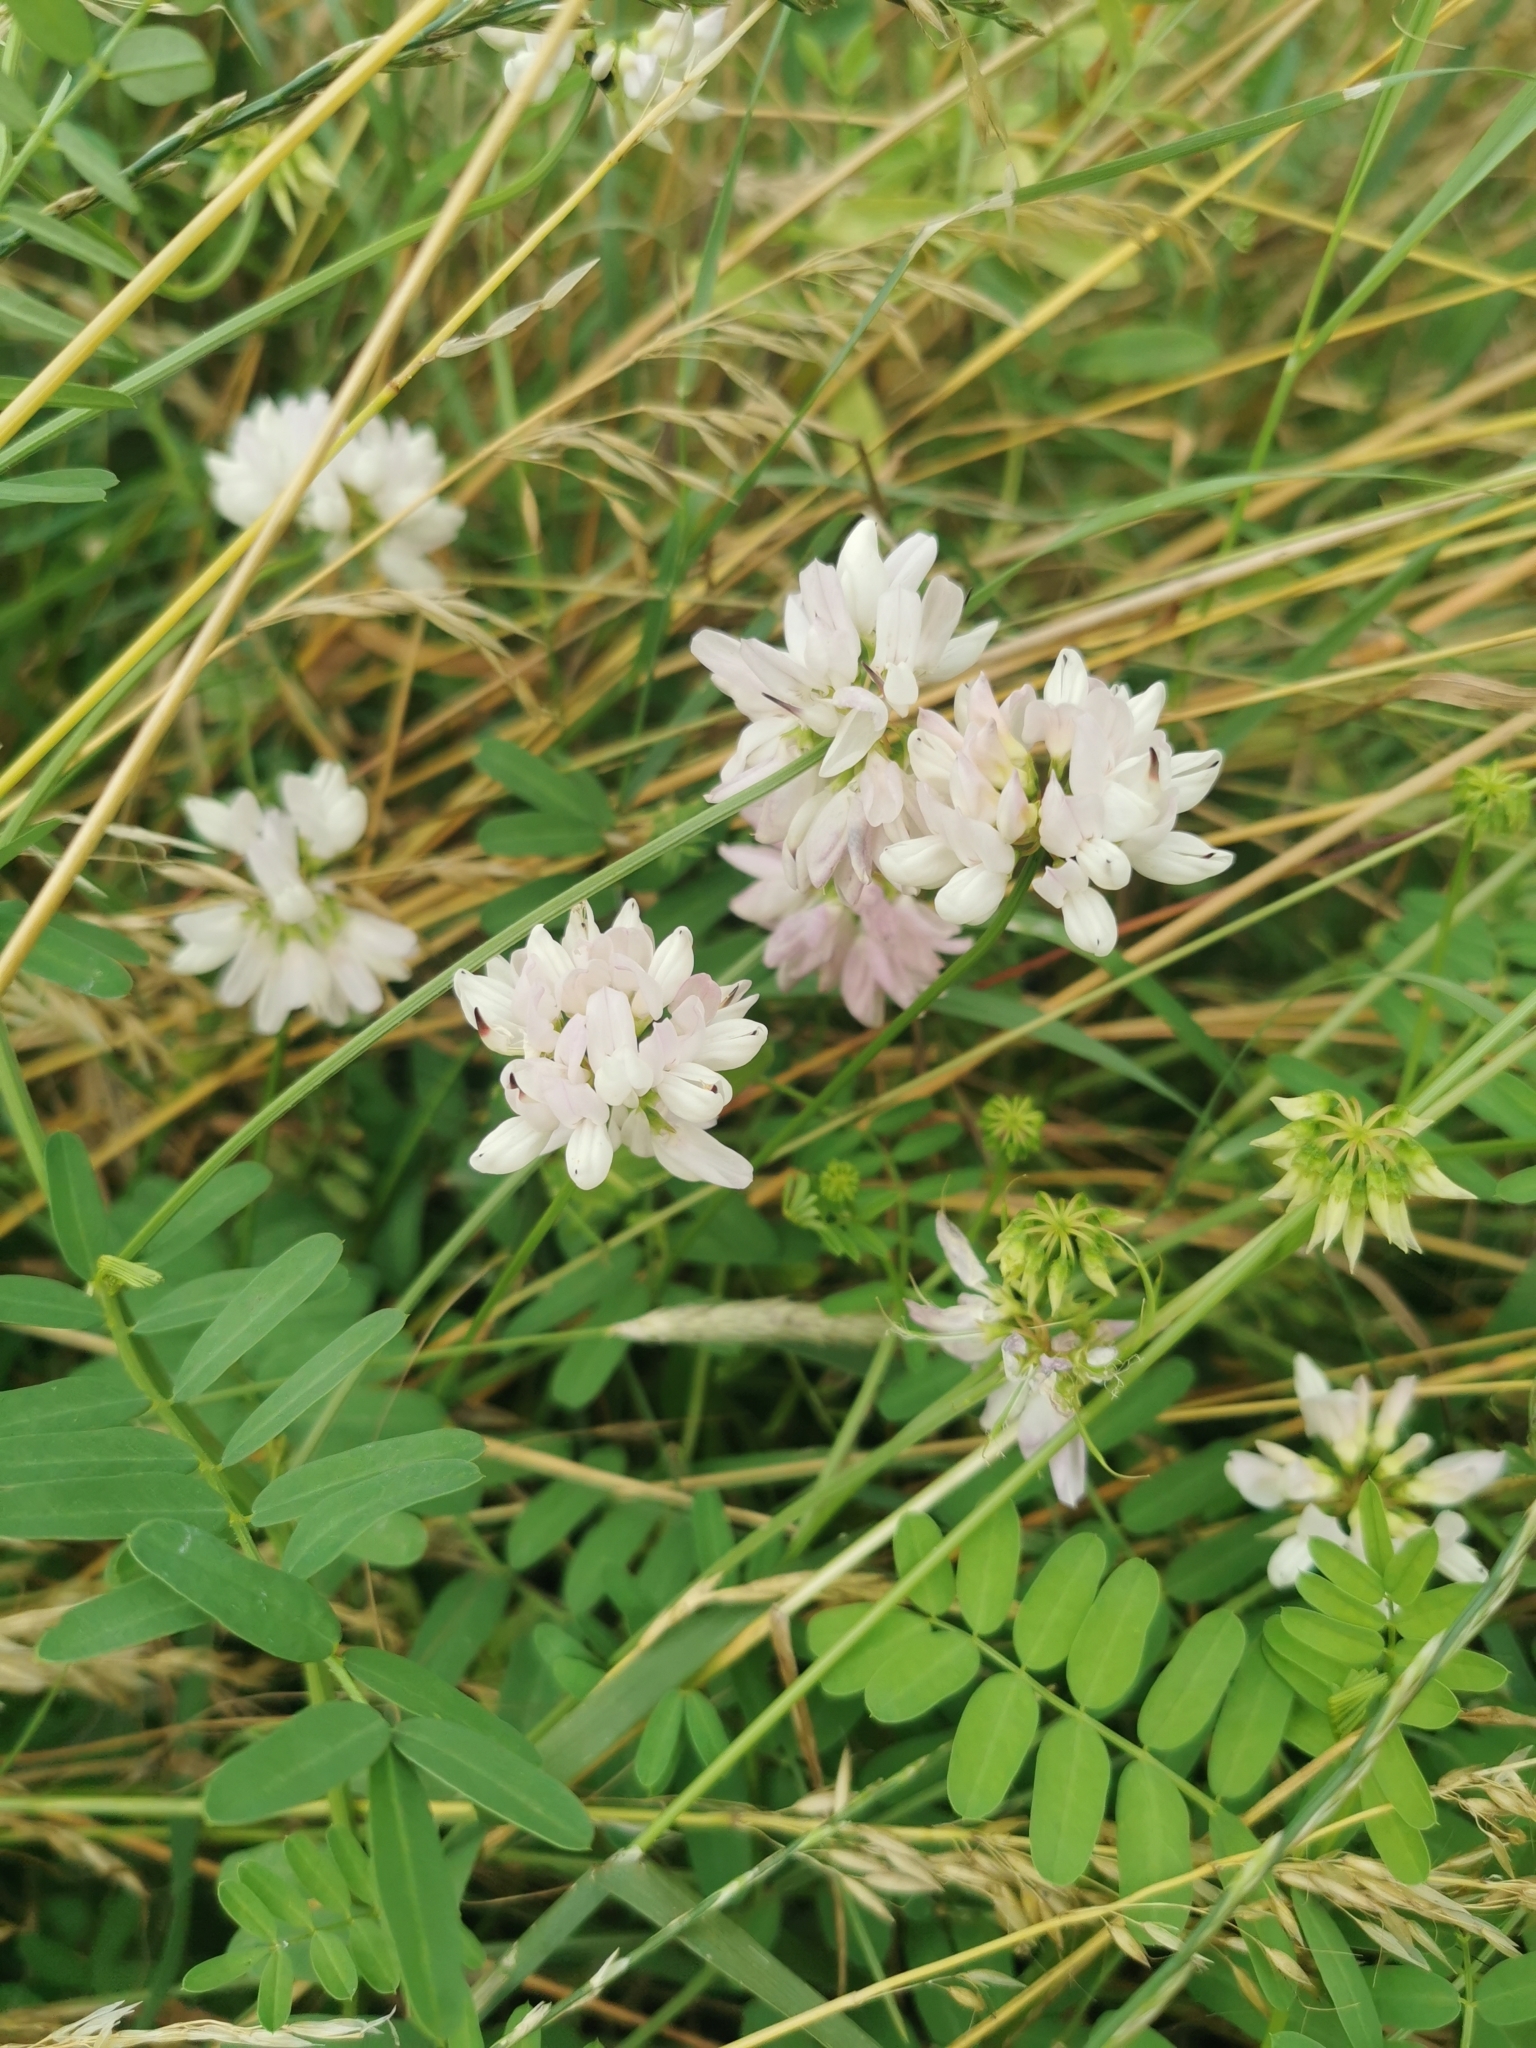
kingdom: Plantae
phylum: Tracheophyta
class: Magnoliopsida
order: Fabales
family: Fabaceae
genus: Coronilla
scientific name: Coronilla varia
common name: Crownvetch
